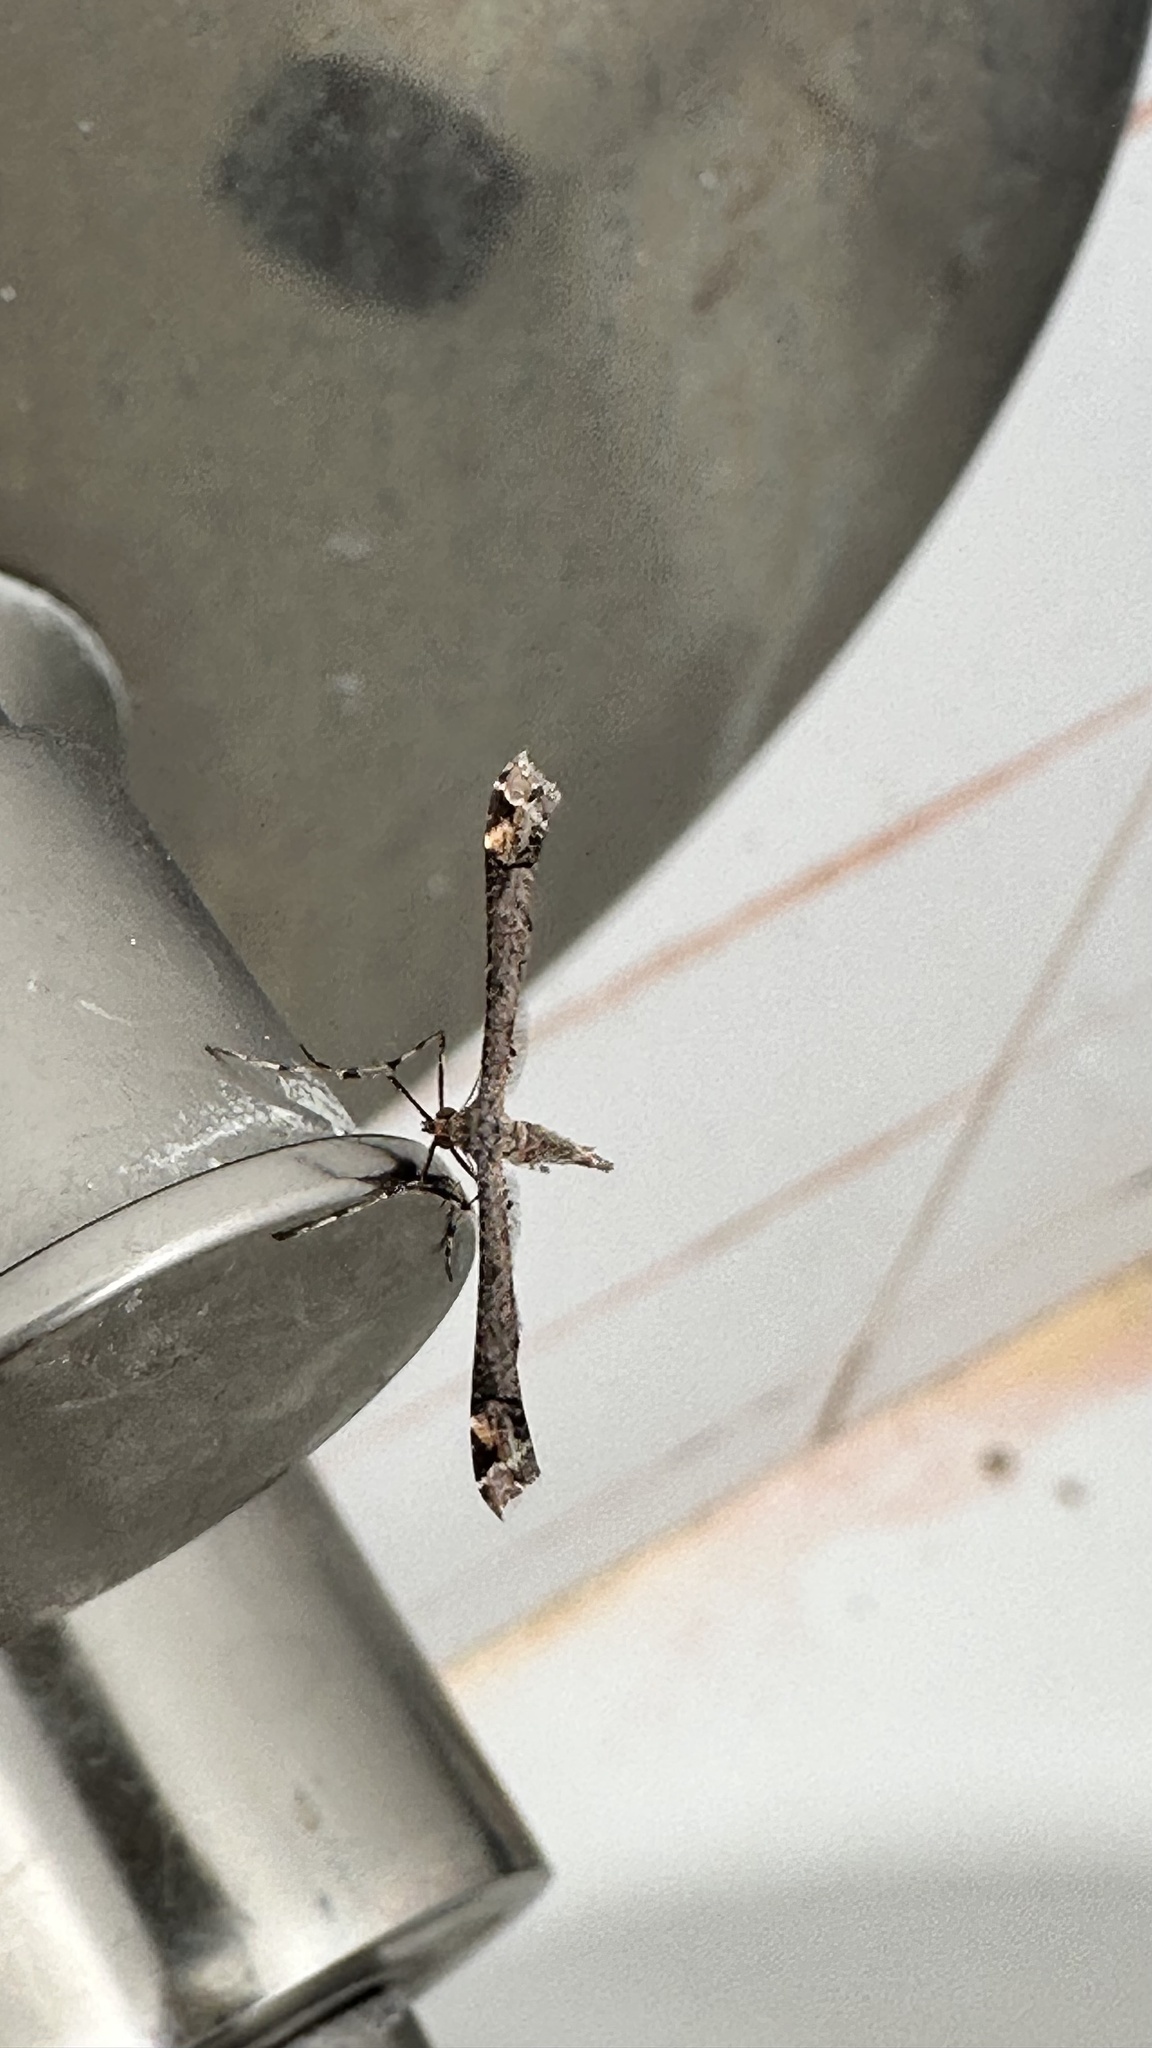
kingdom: Animalia
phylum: Arthropoda
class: Insecta
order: Lepidoptera
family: Pterophoridae
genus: Anstenoptilia
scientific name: Anstenoptilia marmarodactyla
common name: Moth
